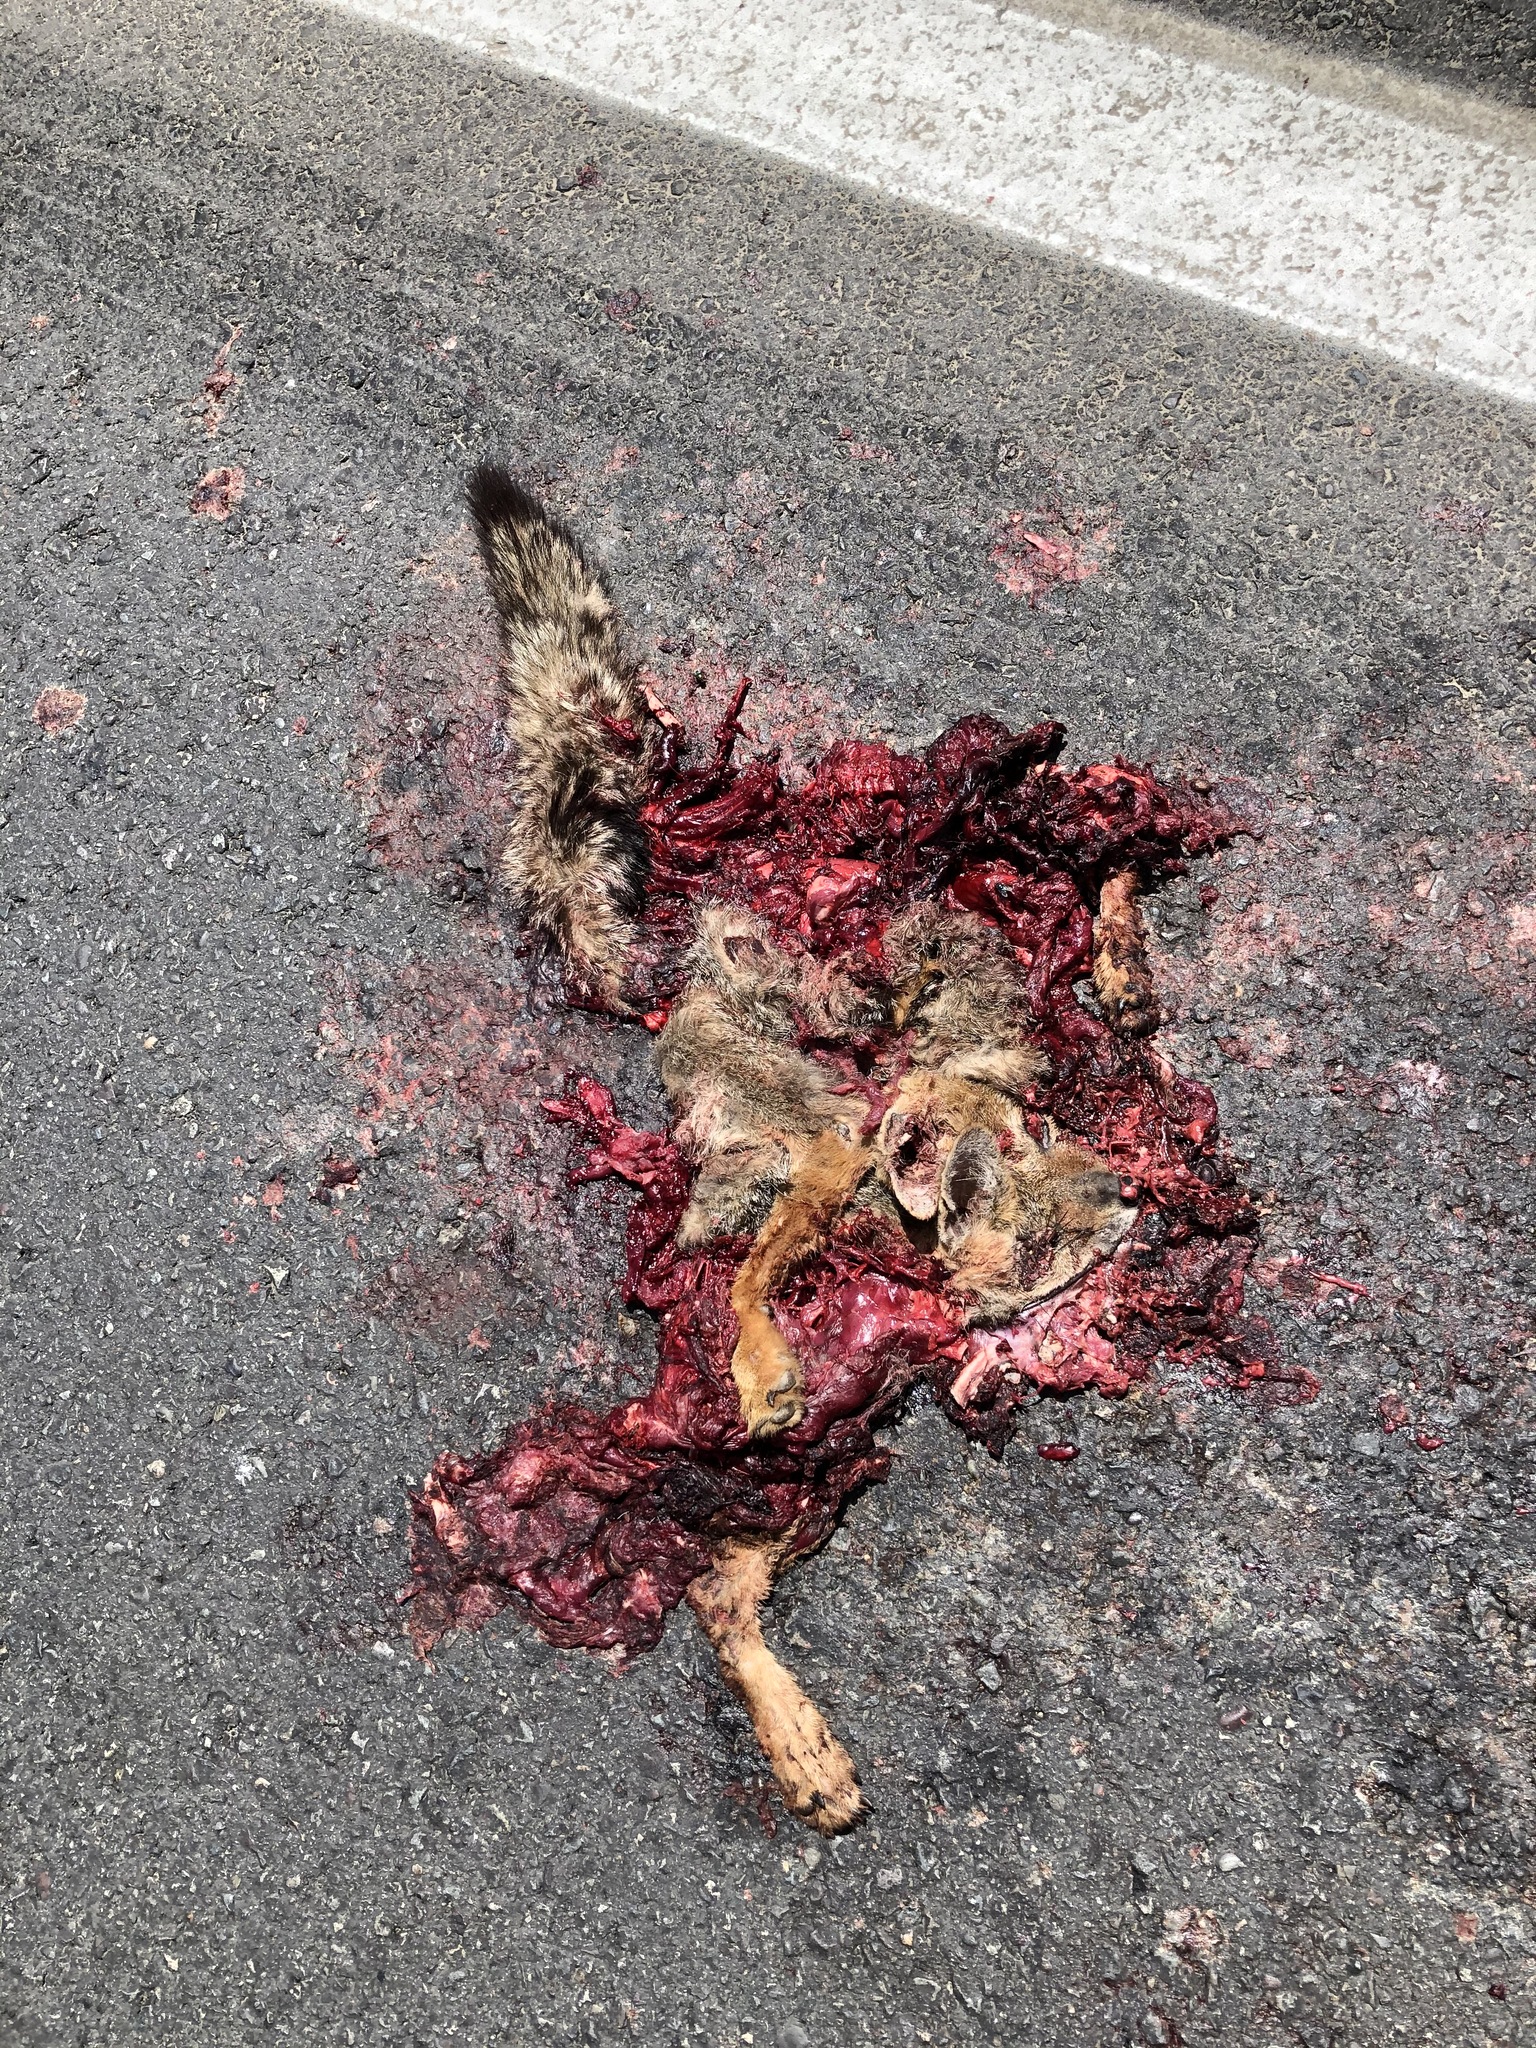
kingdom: Animalia
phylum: Chordata
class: Mammalia
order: Carnivora
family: Canidae
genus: Lycalopex
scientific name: Lycalopex culpaeus
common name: Culpeo
